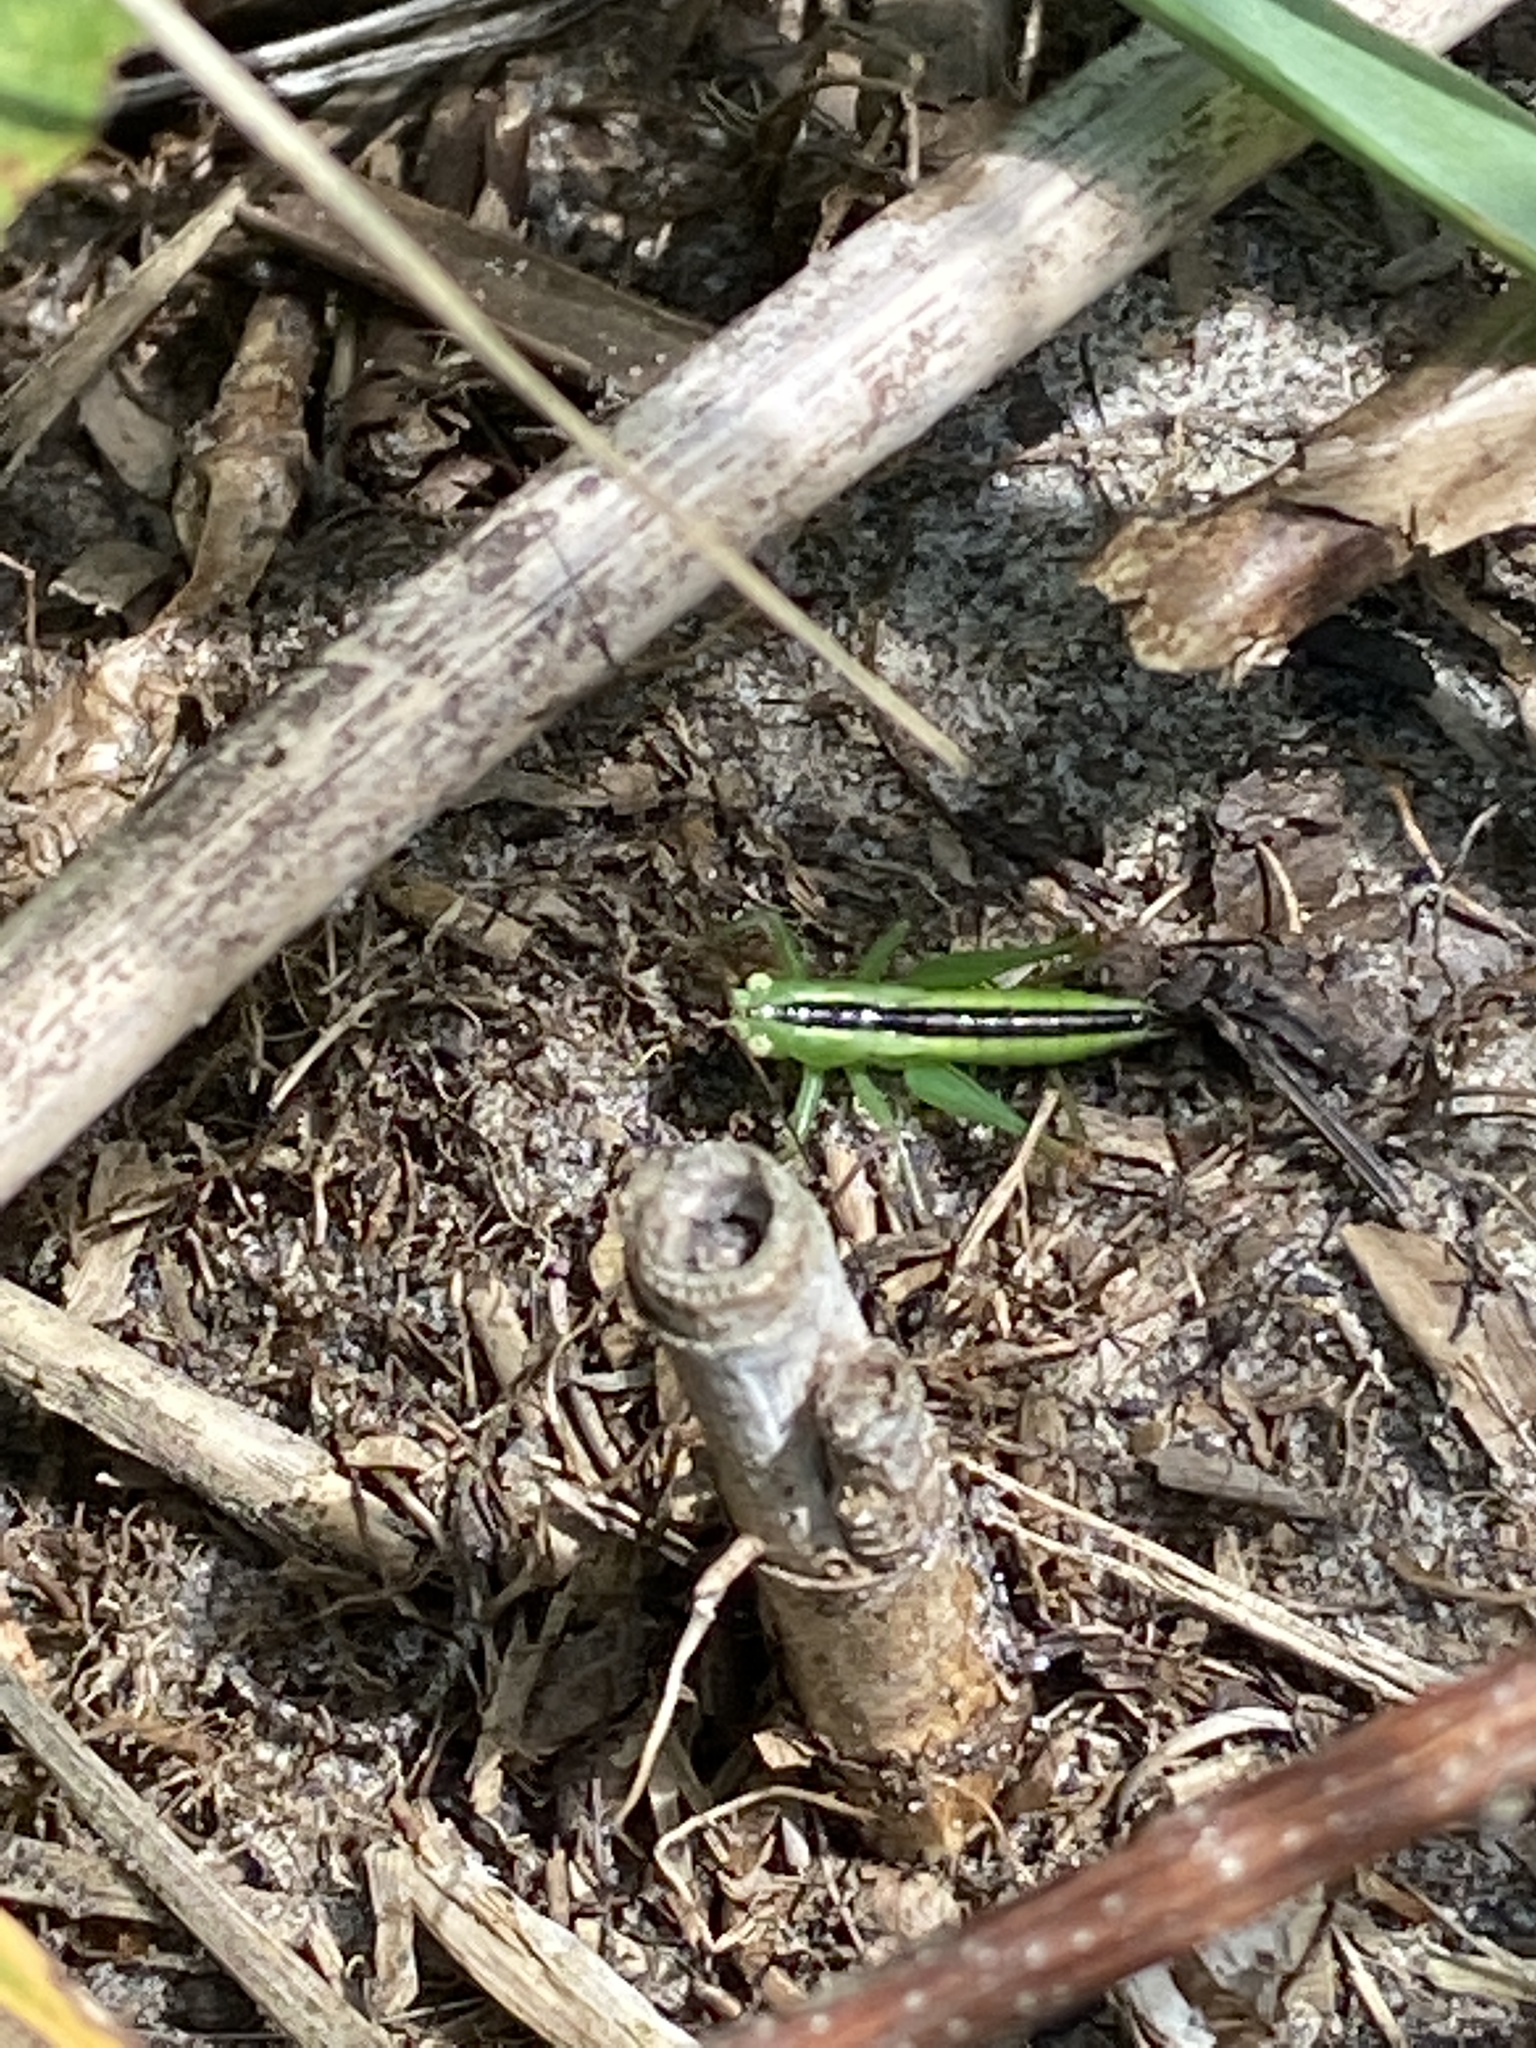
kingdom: Animalia
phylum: Arthropoda
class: Insecta
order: Orthoptera
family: Tettigoniidae
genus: Conocephalus
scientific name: Conocephalus dorsalis
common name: Short-winged conehead
